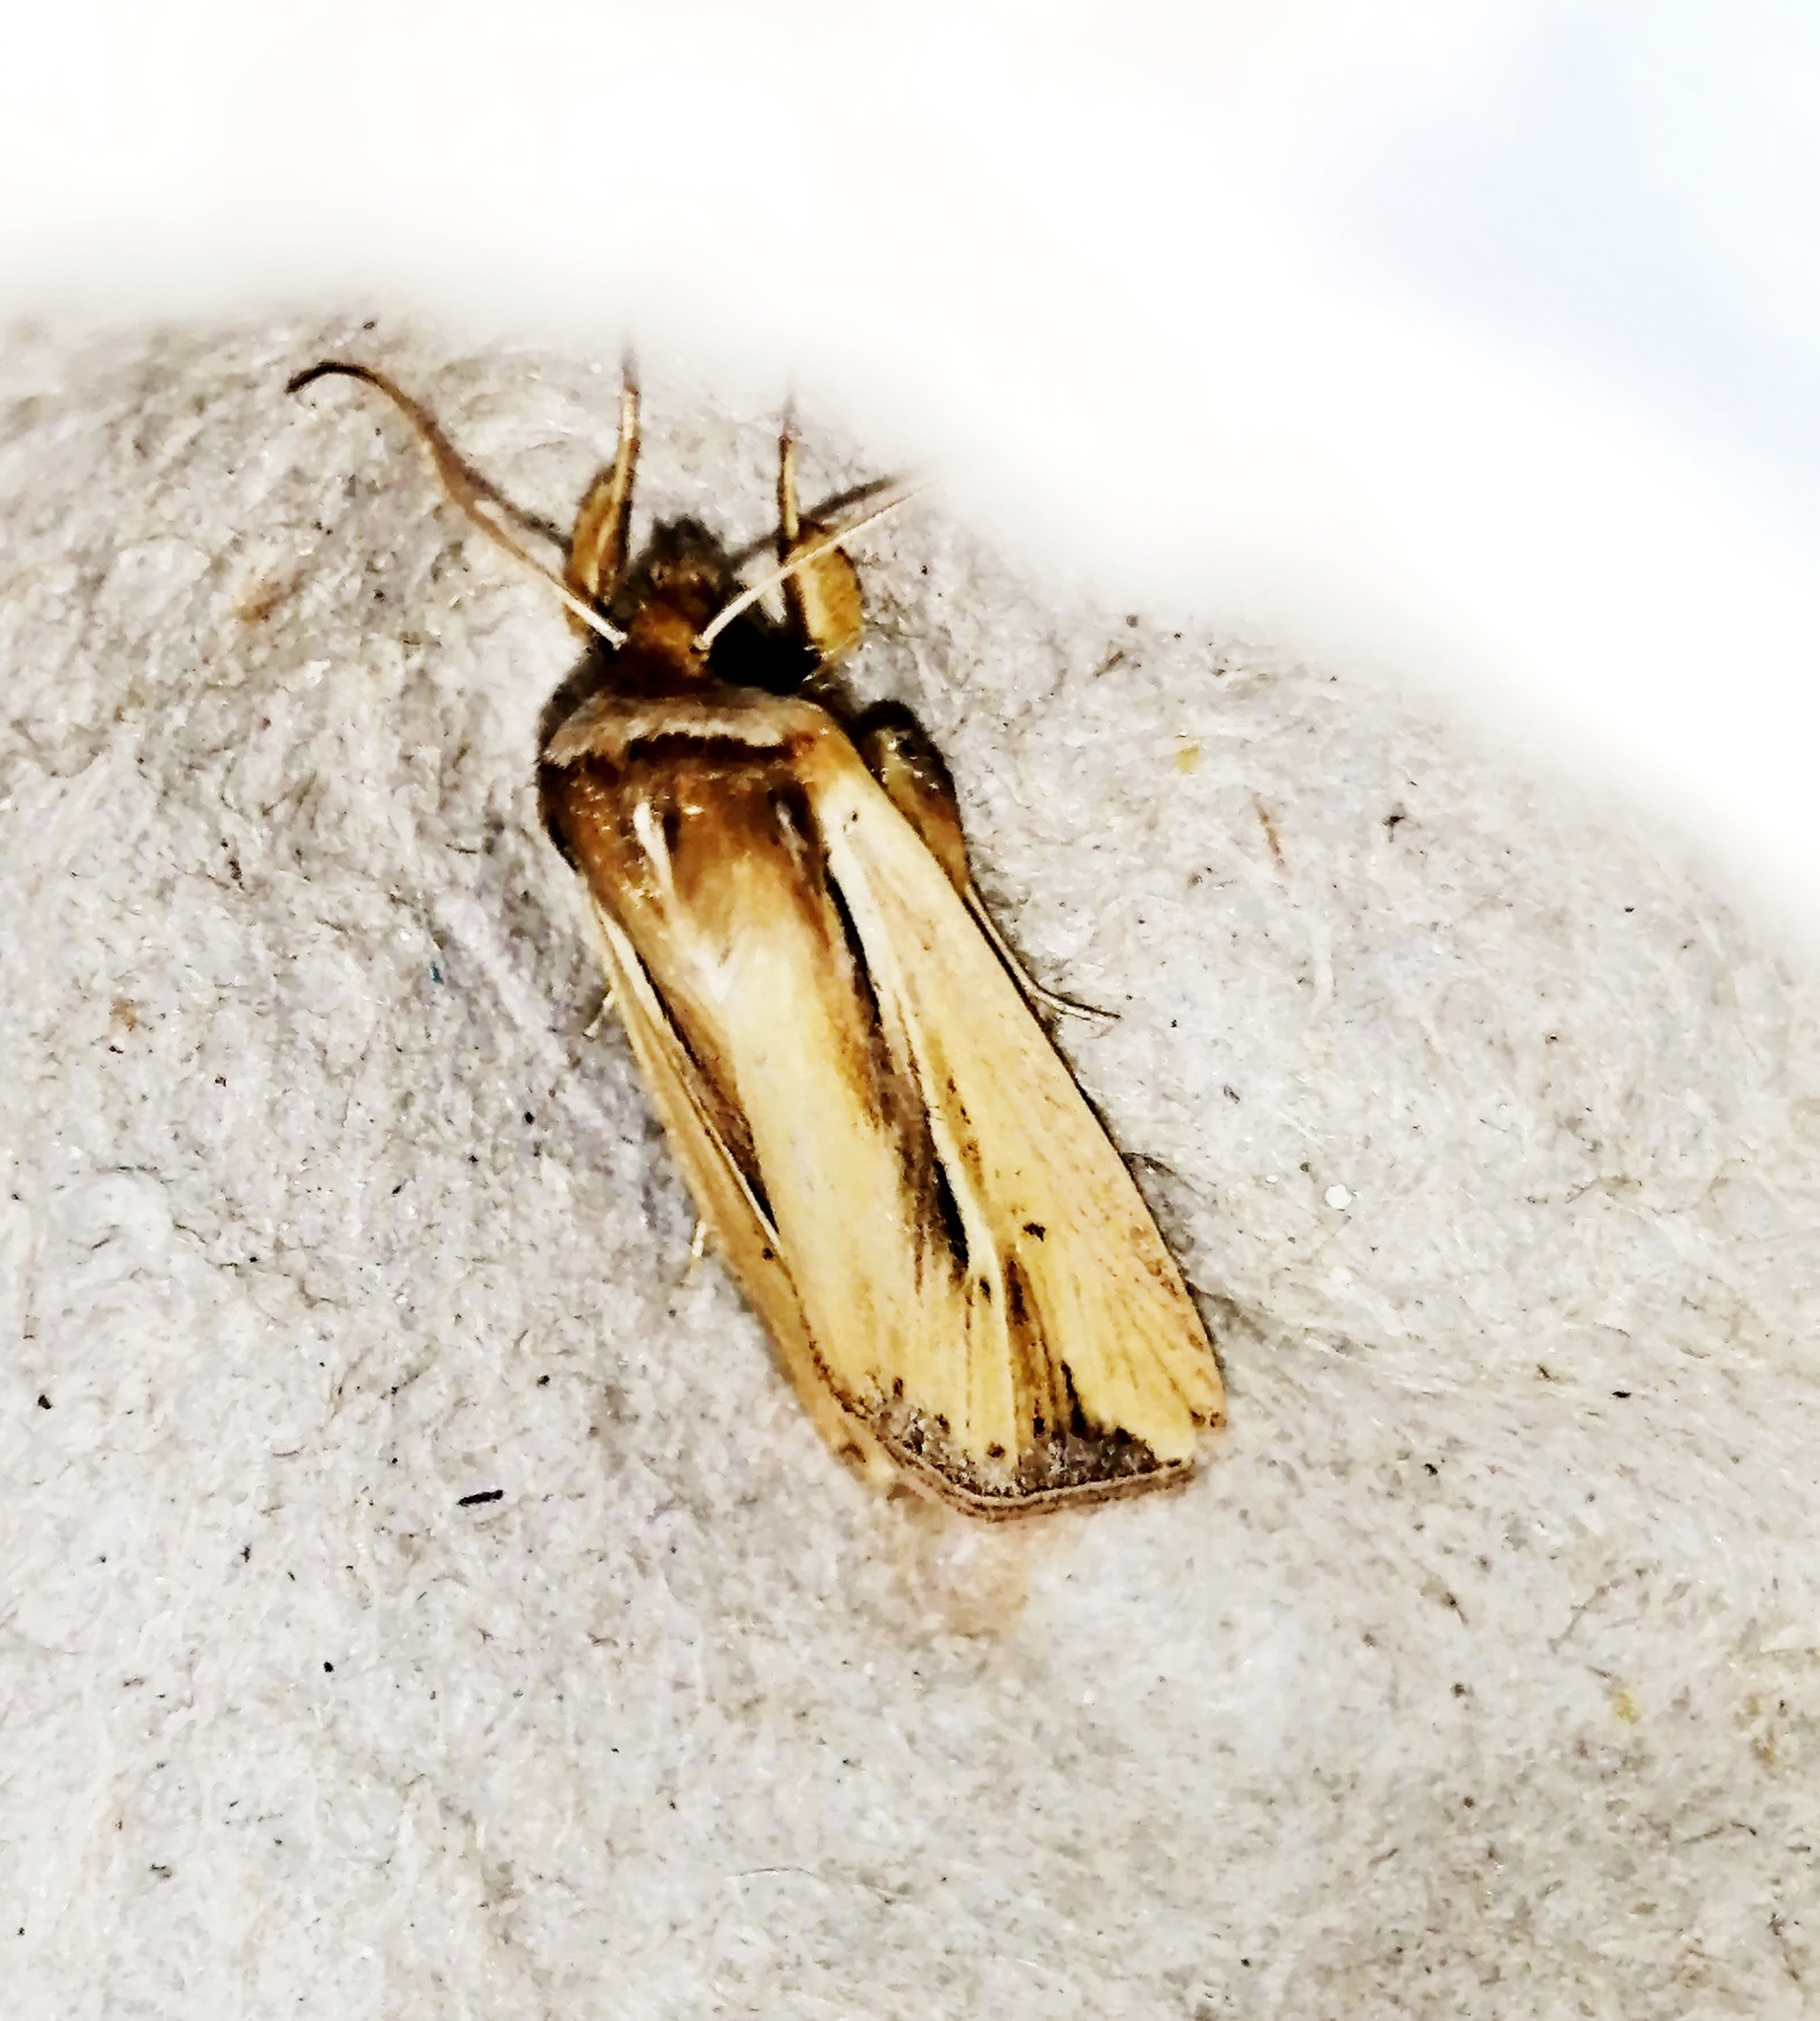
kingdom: Animalia
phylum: Arthropoda
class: Insecta
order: Lepidoptera
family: Noctuidae
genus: Dargida
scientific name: Dargida diffusa
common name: Wheat head armyworm
